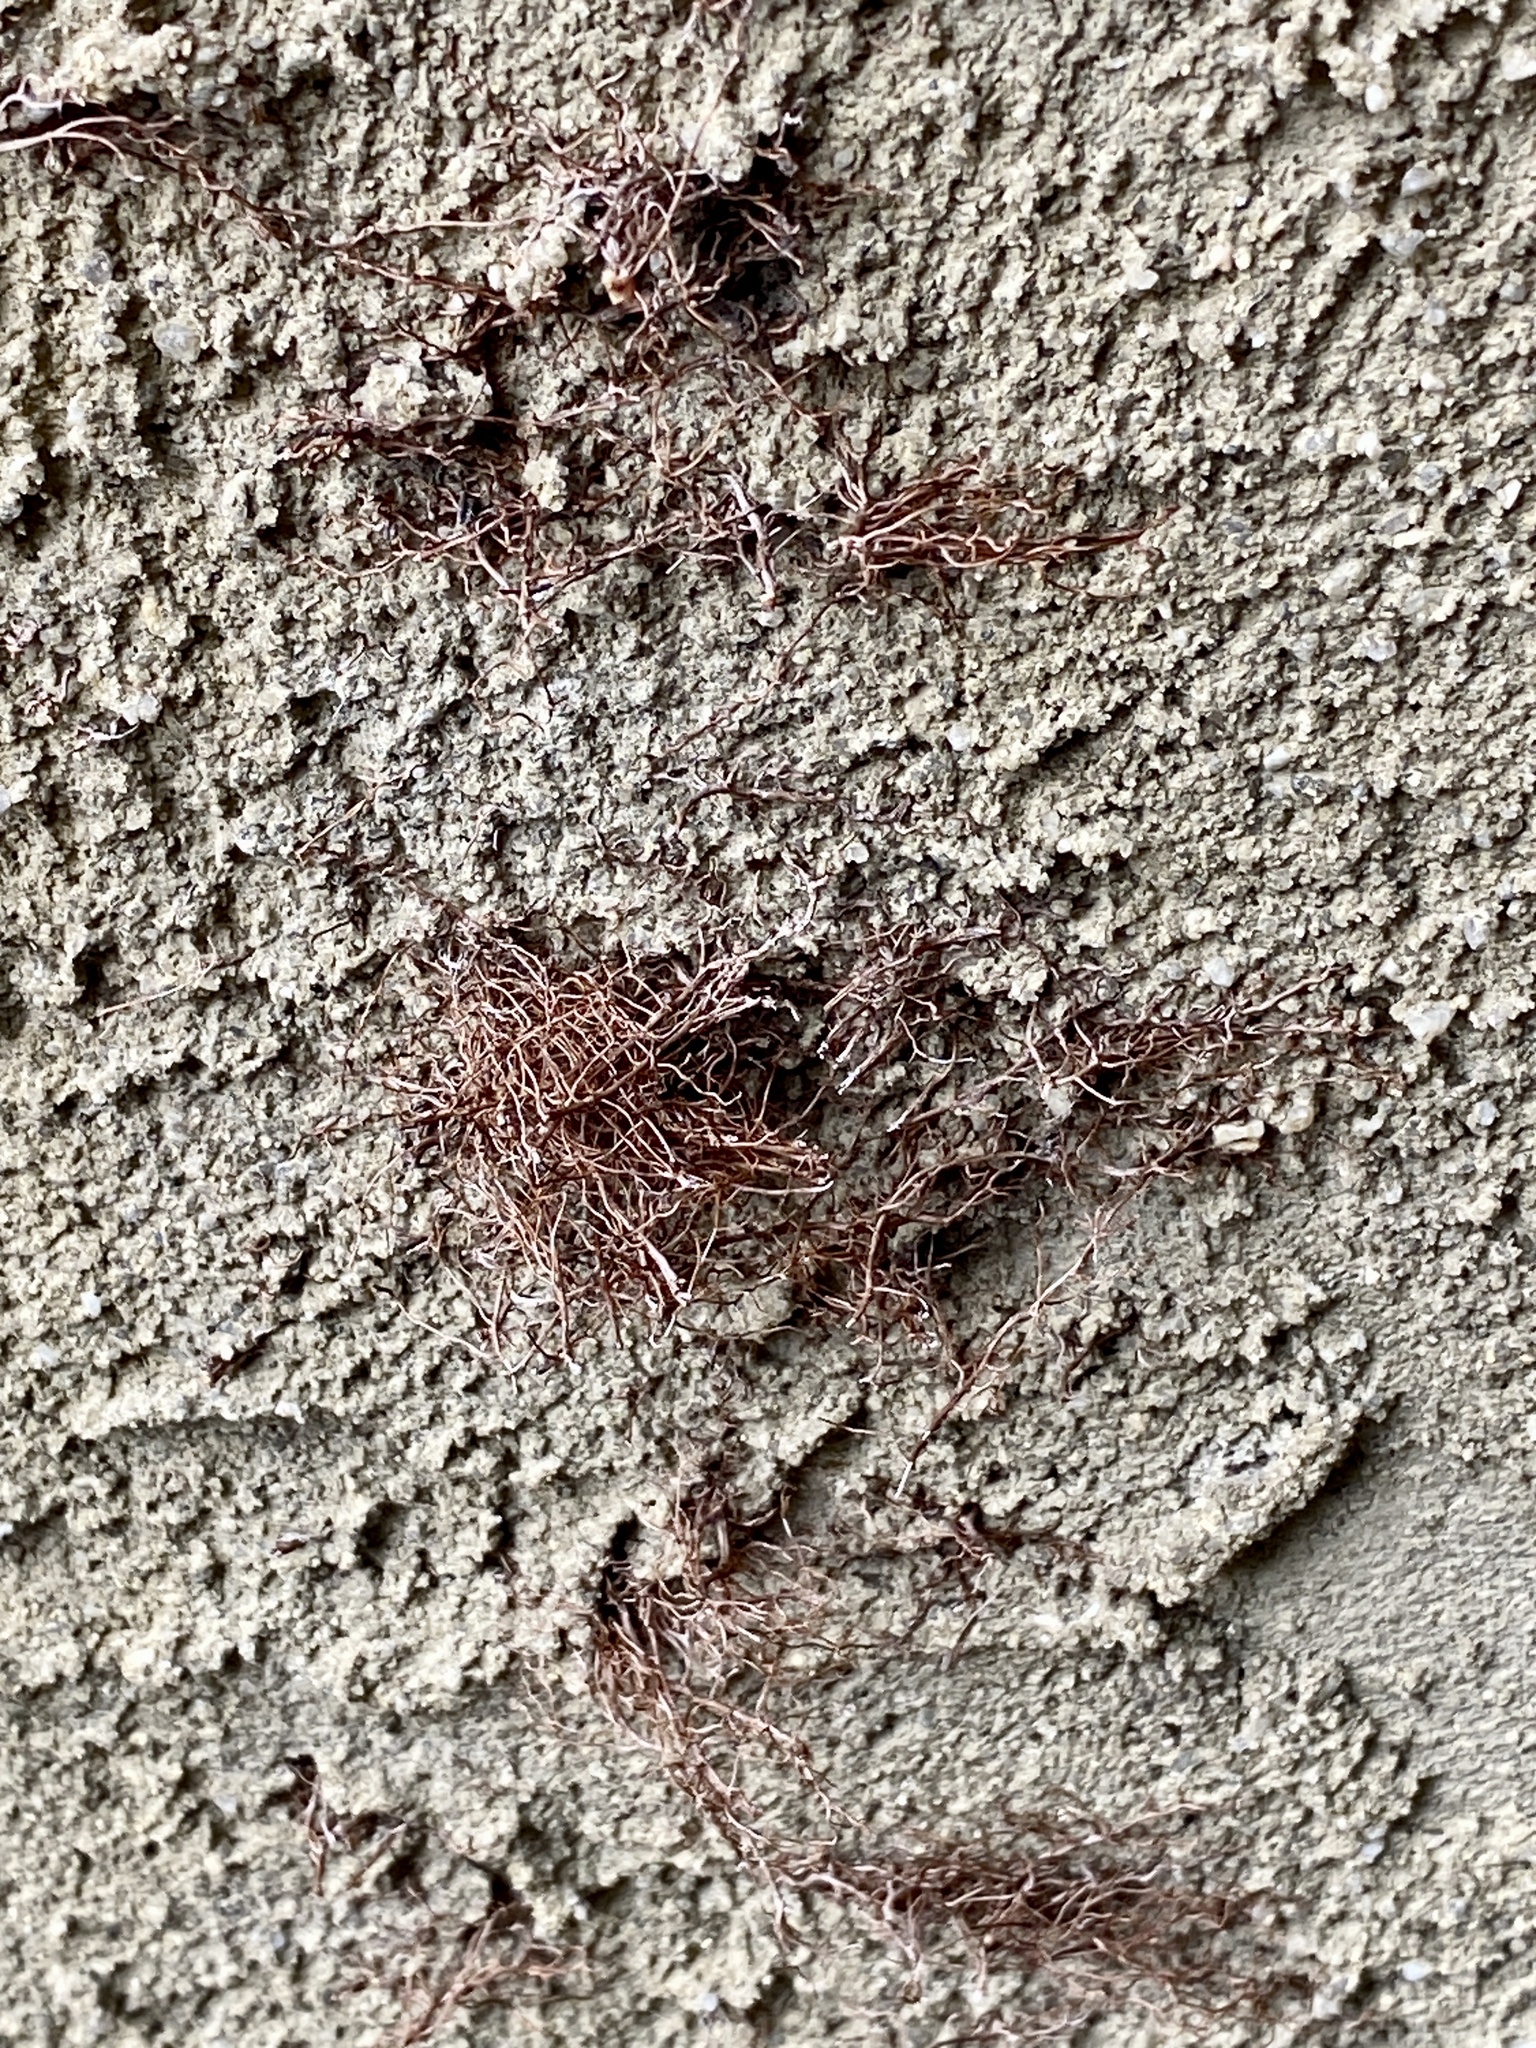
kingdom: Plantae
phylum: Tracheophyta
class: Magnoliopsida
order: Sapindales
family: Anacardiaceae
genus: Toxicodendron
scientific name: Toxicodendron radicans
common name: Poison ivy
